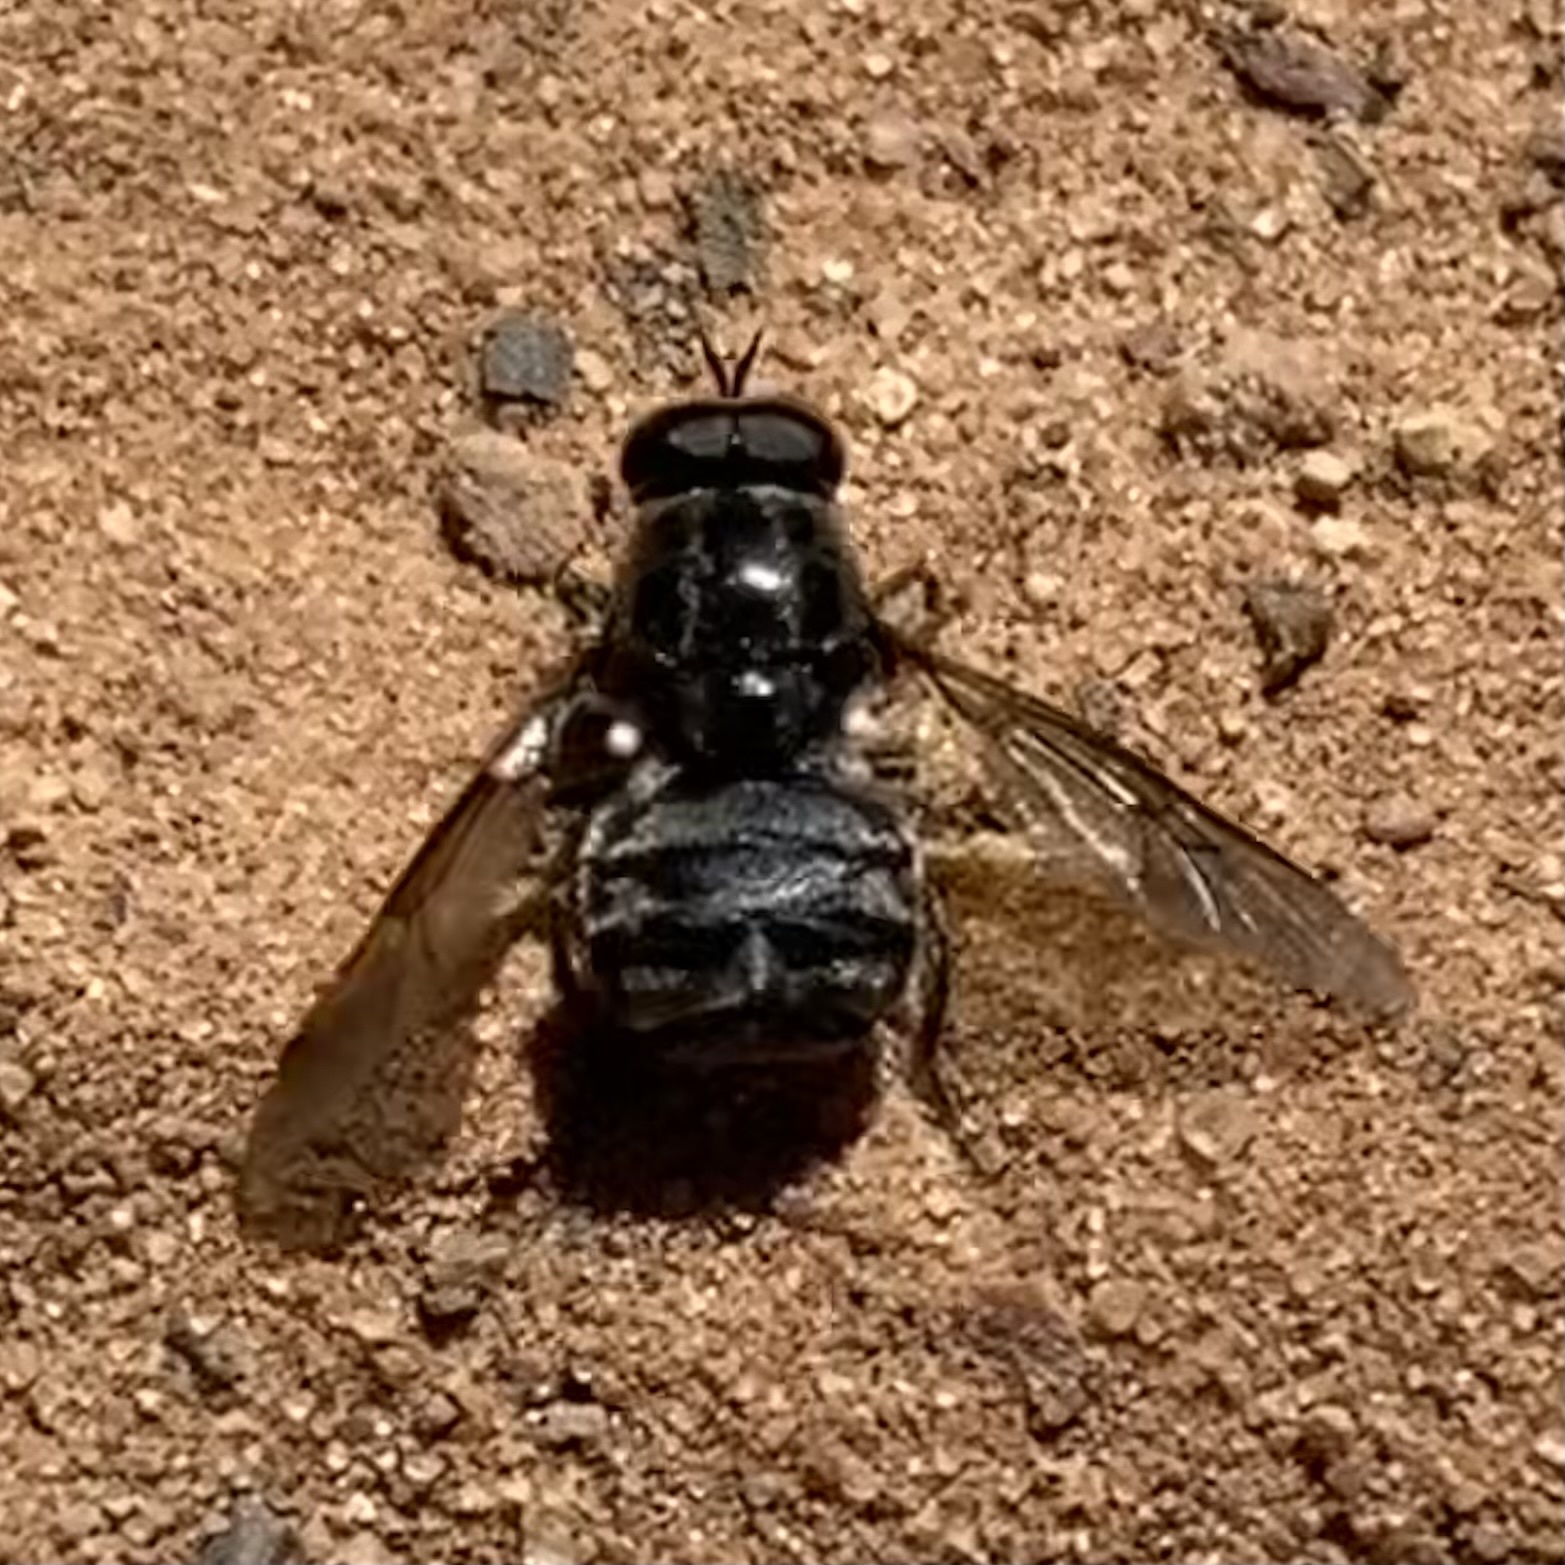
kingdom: Animalia
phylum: Arthropoda
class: Insecta
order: Diptera
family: Stratiomyidae
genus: Adoxomyia
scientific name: Adoxomyia
